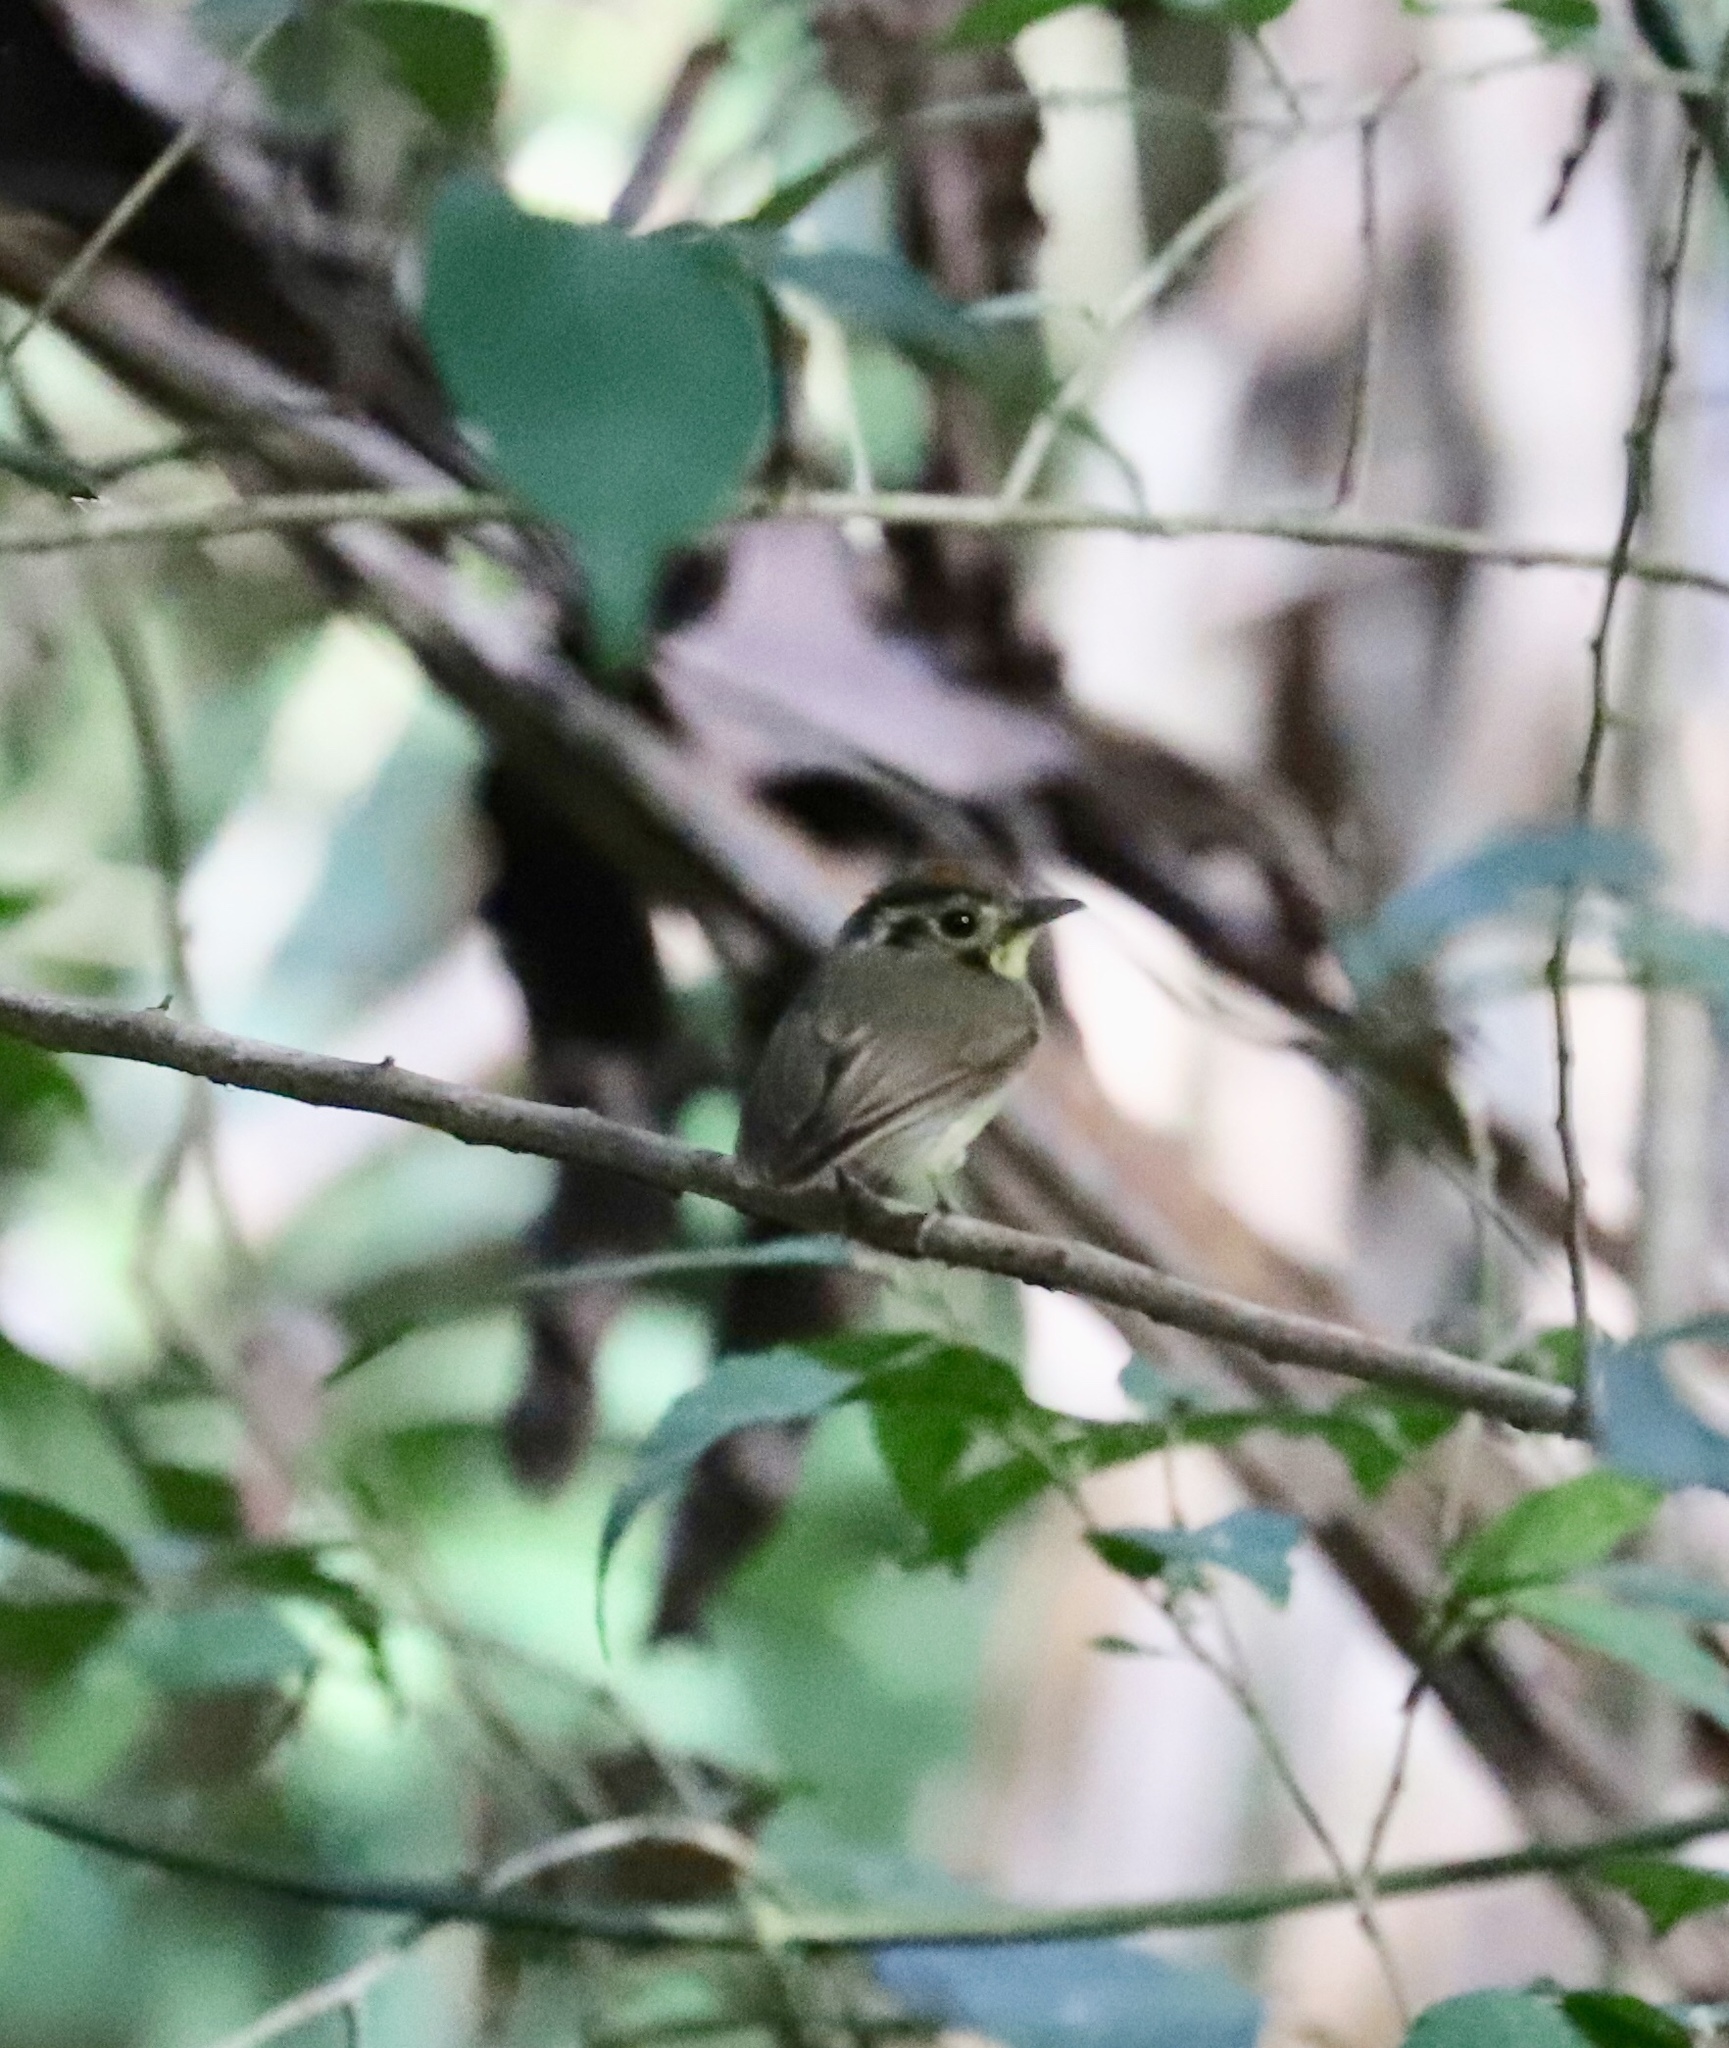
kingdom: Animalia
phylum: Chordata
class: Aves
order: Passeriformes
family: Tyrannidae
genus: Platyrinchus
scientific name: Platyrinchus coronatus
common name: Golden-crowned spadebill
